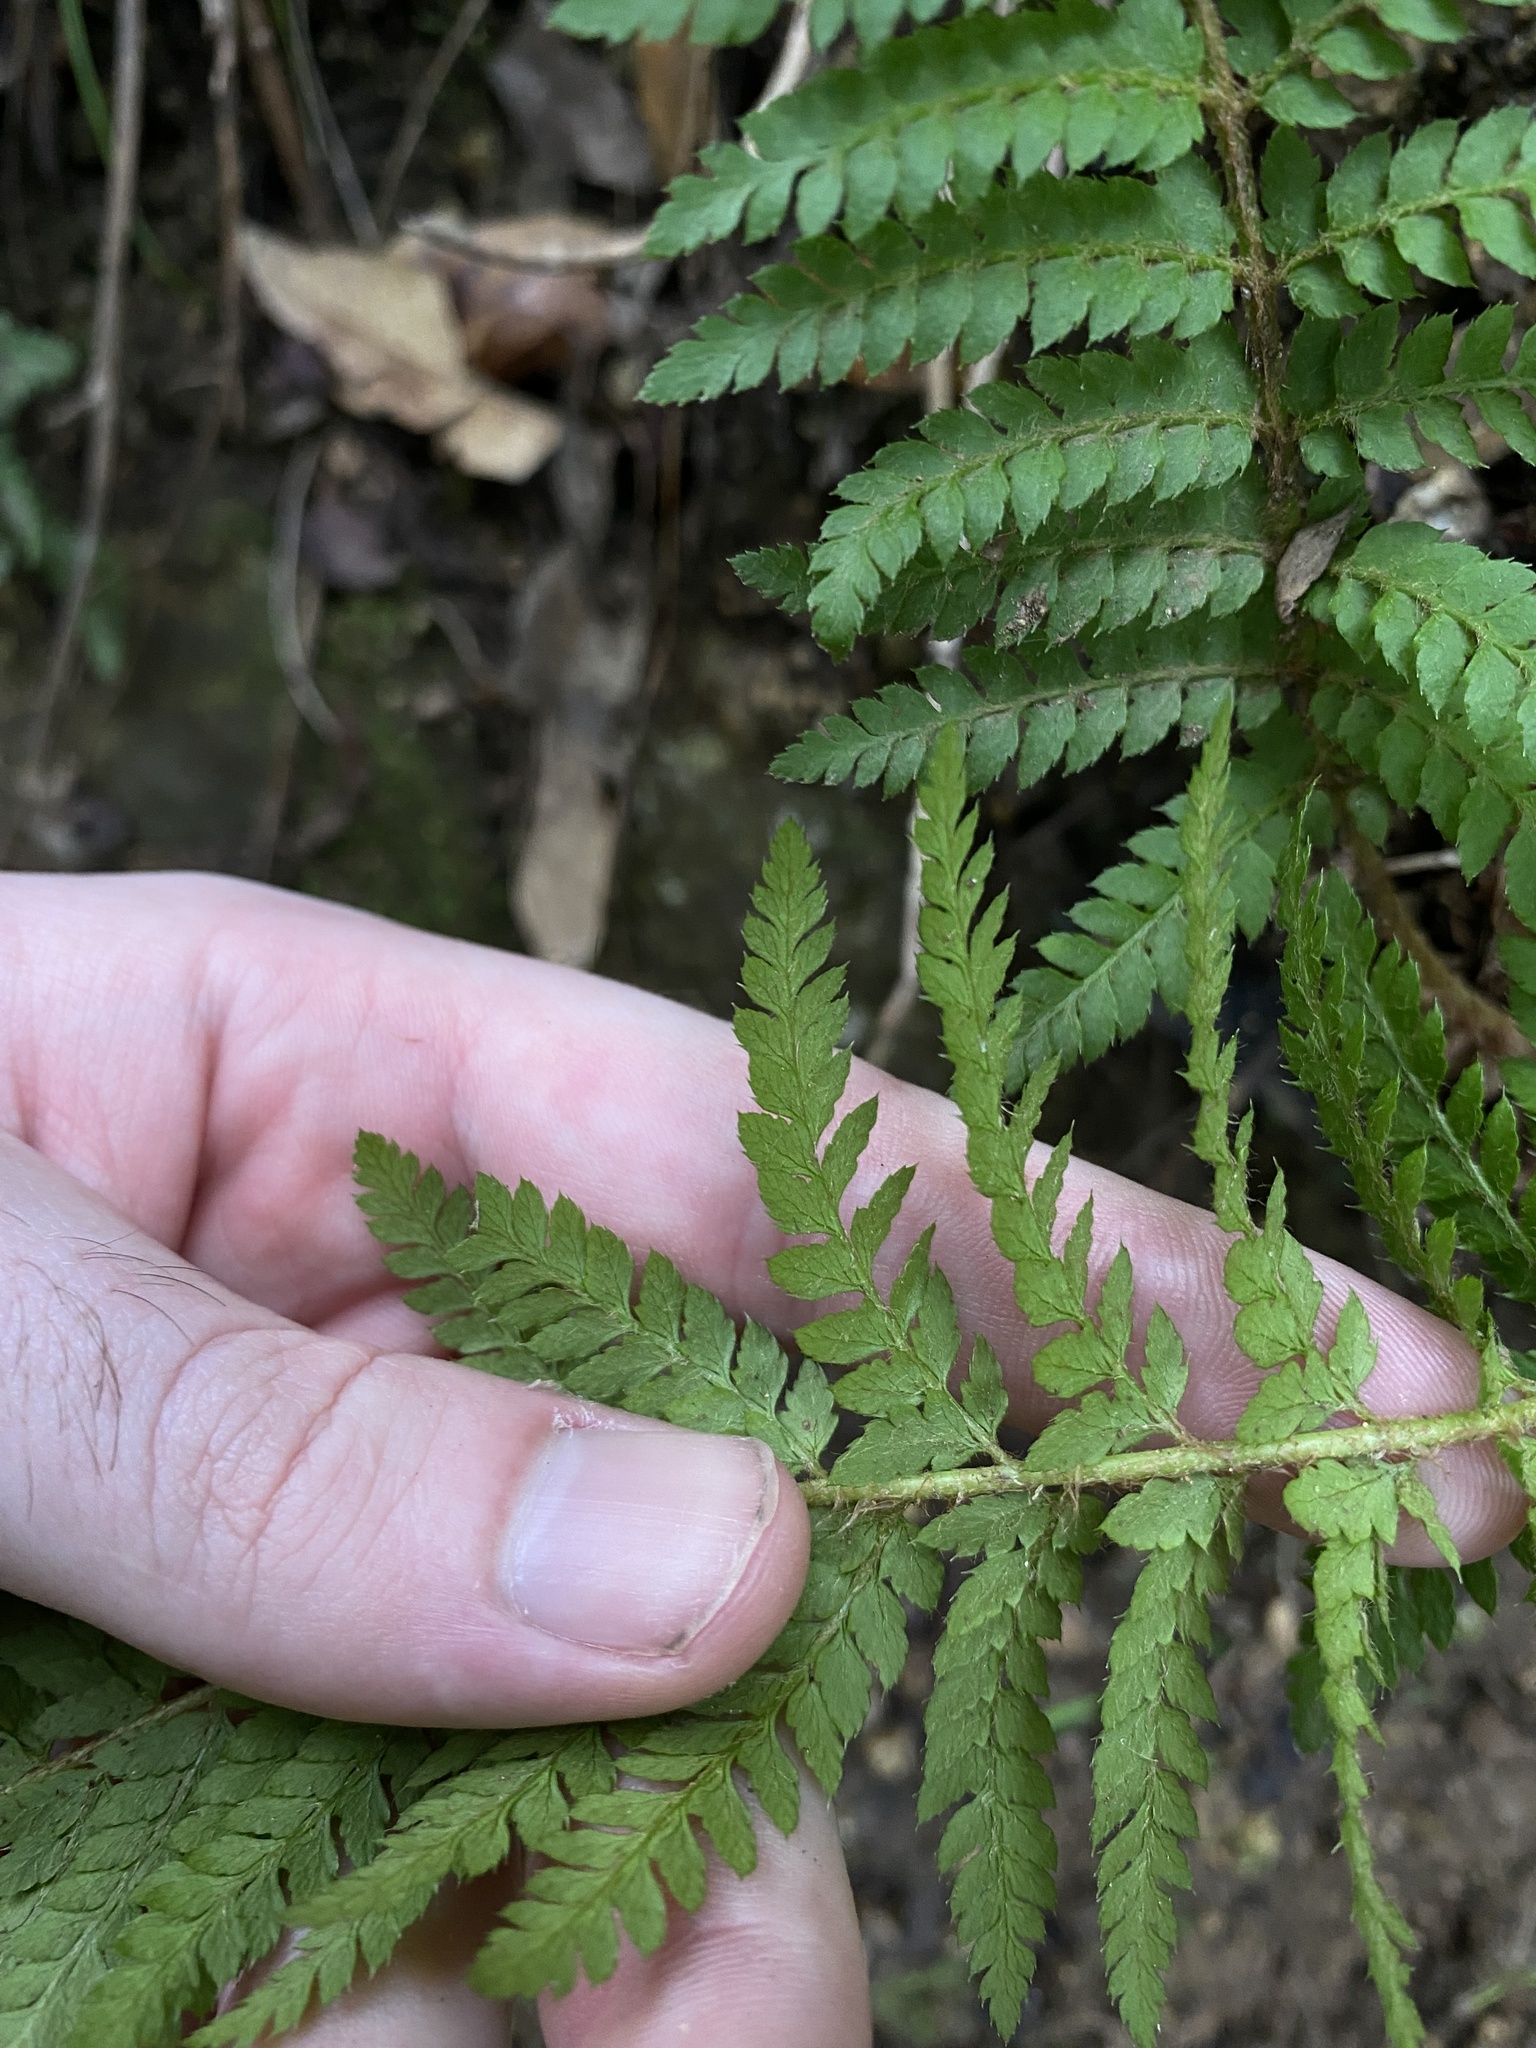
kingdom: Plantae
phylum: Tracheophyta
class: Polypodiopsida
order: Polypodiales
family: Dryopteridaceae
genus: Polystichum
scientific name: Polystichum dudleyi
